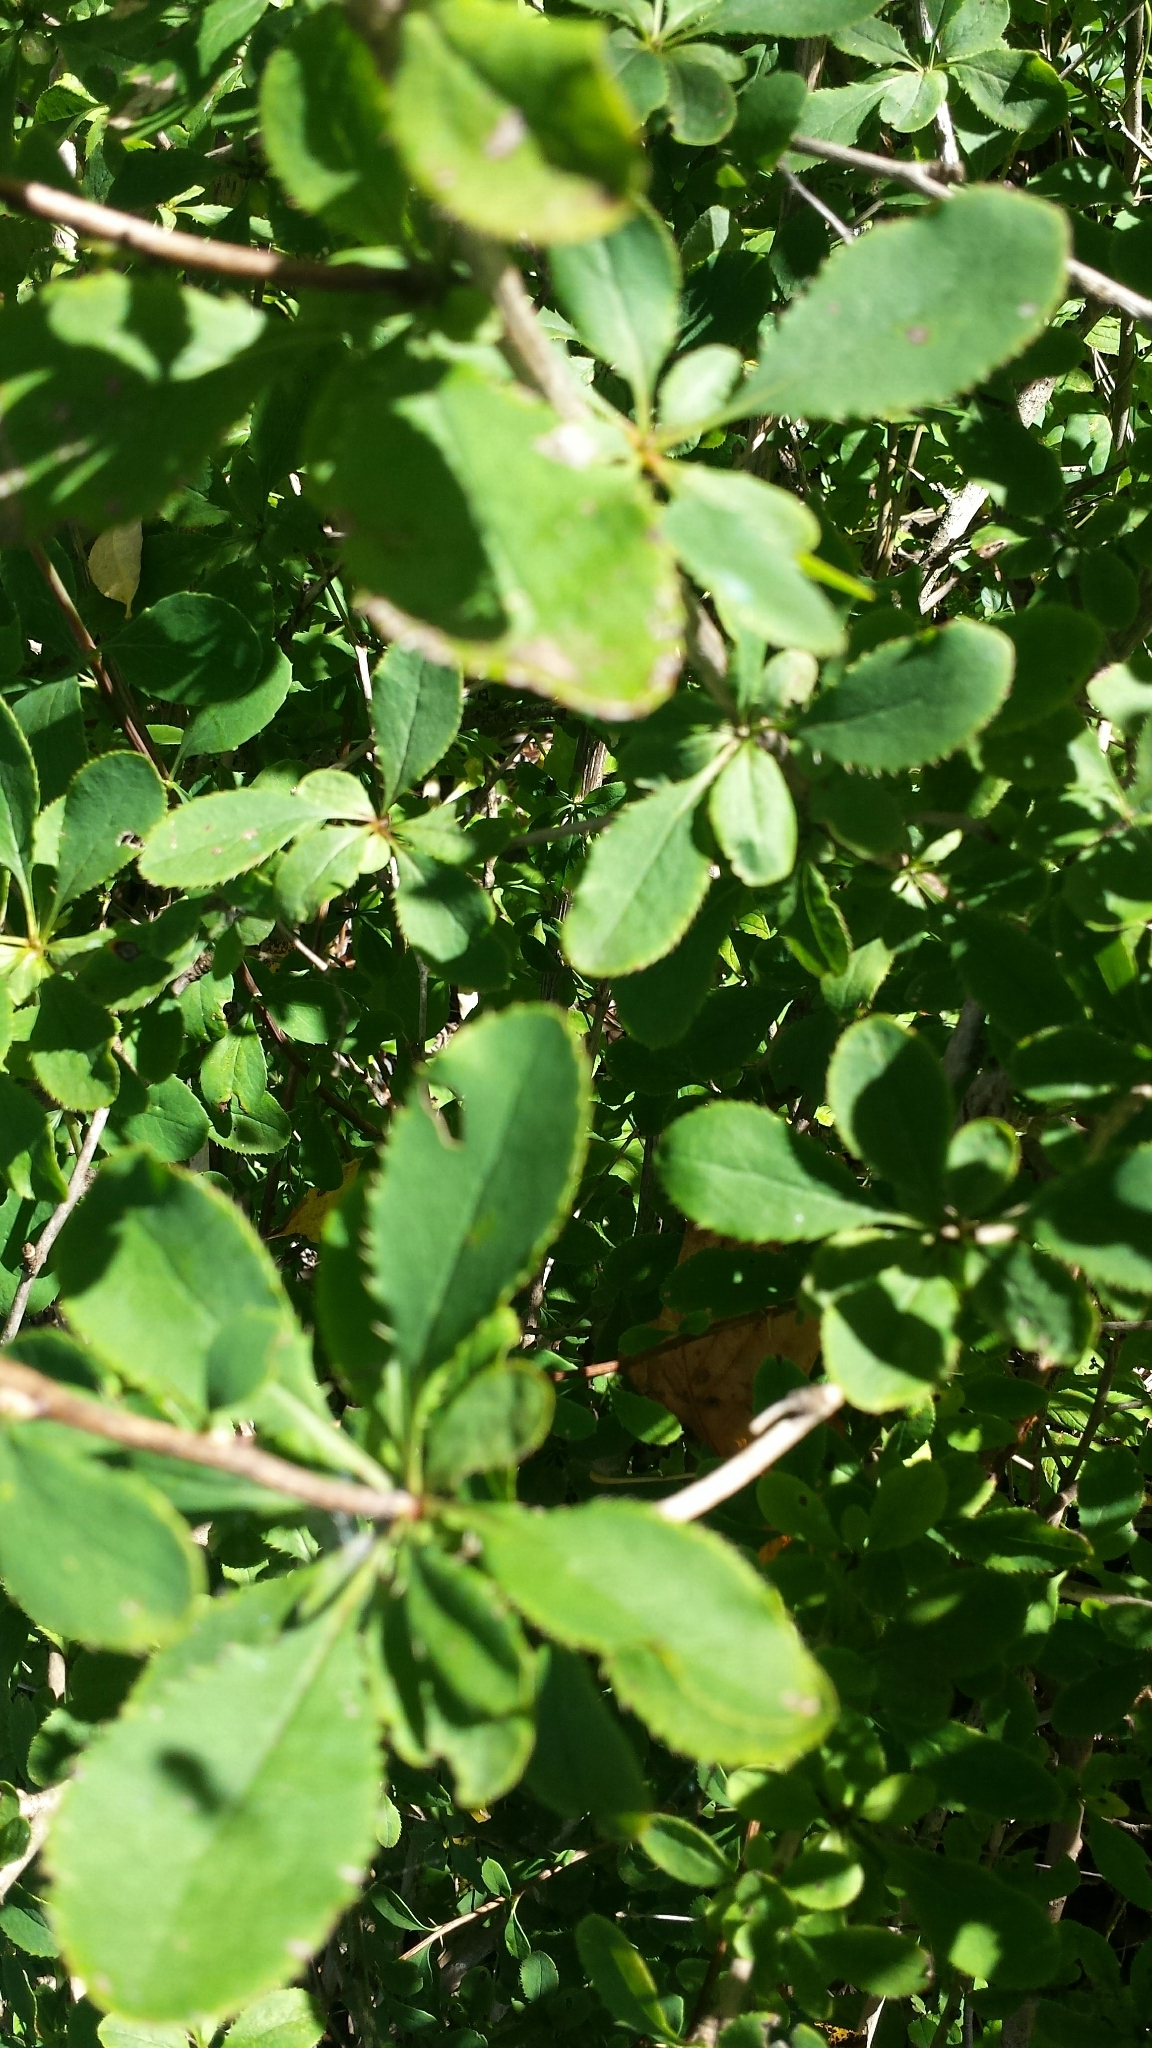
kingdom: Plantae
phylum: Tracheophyta
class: Magnoliopsida
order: Ranunculales
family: Berberidaceae
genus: Berberis
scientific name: Berberis vulgaris
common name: Barberry
